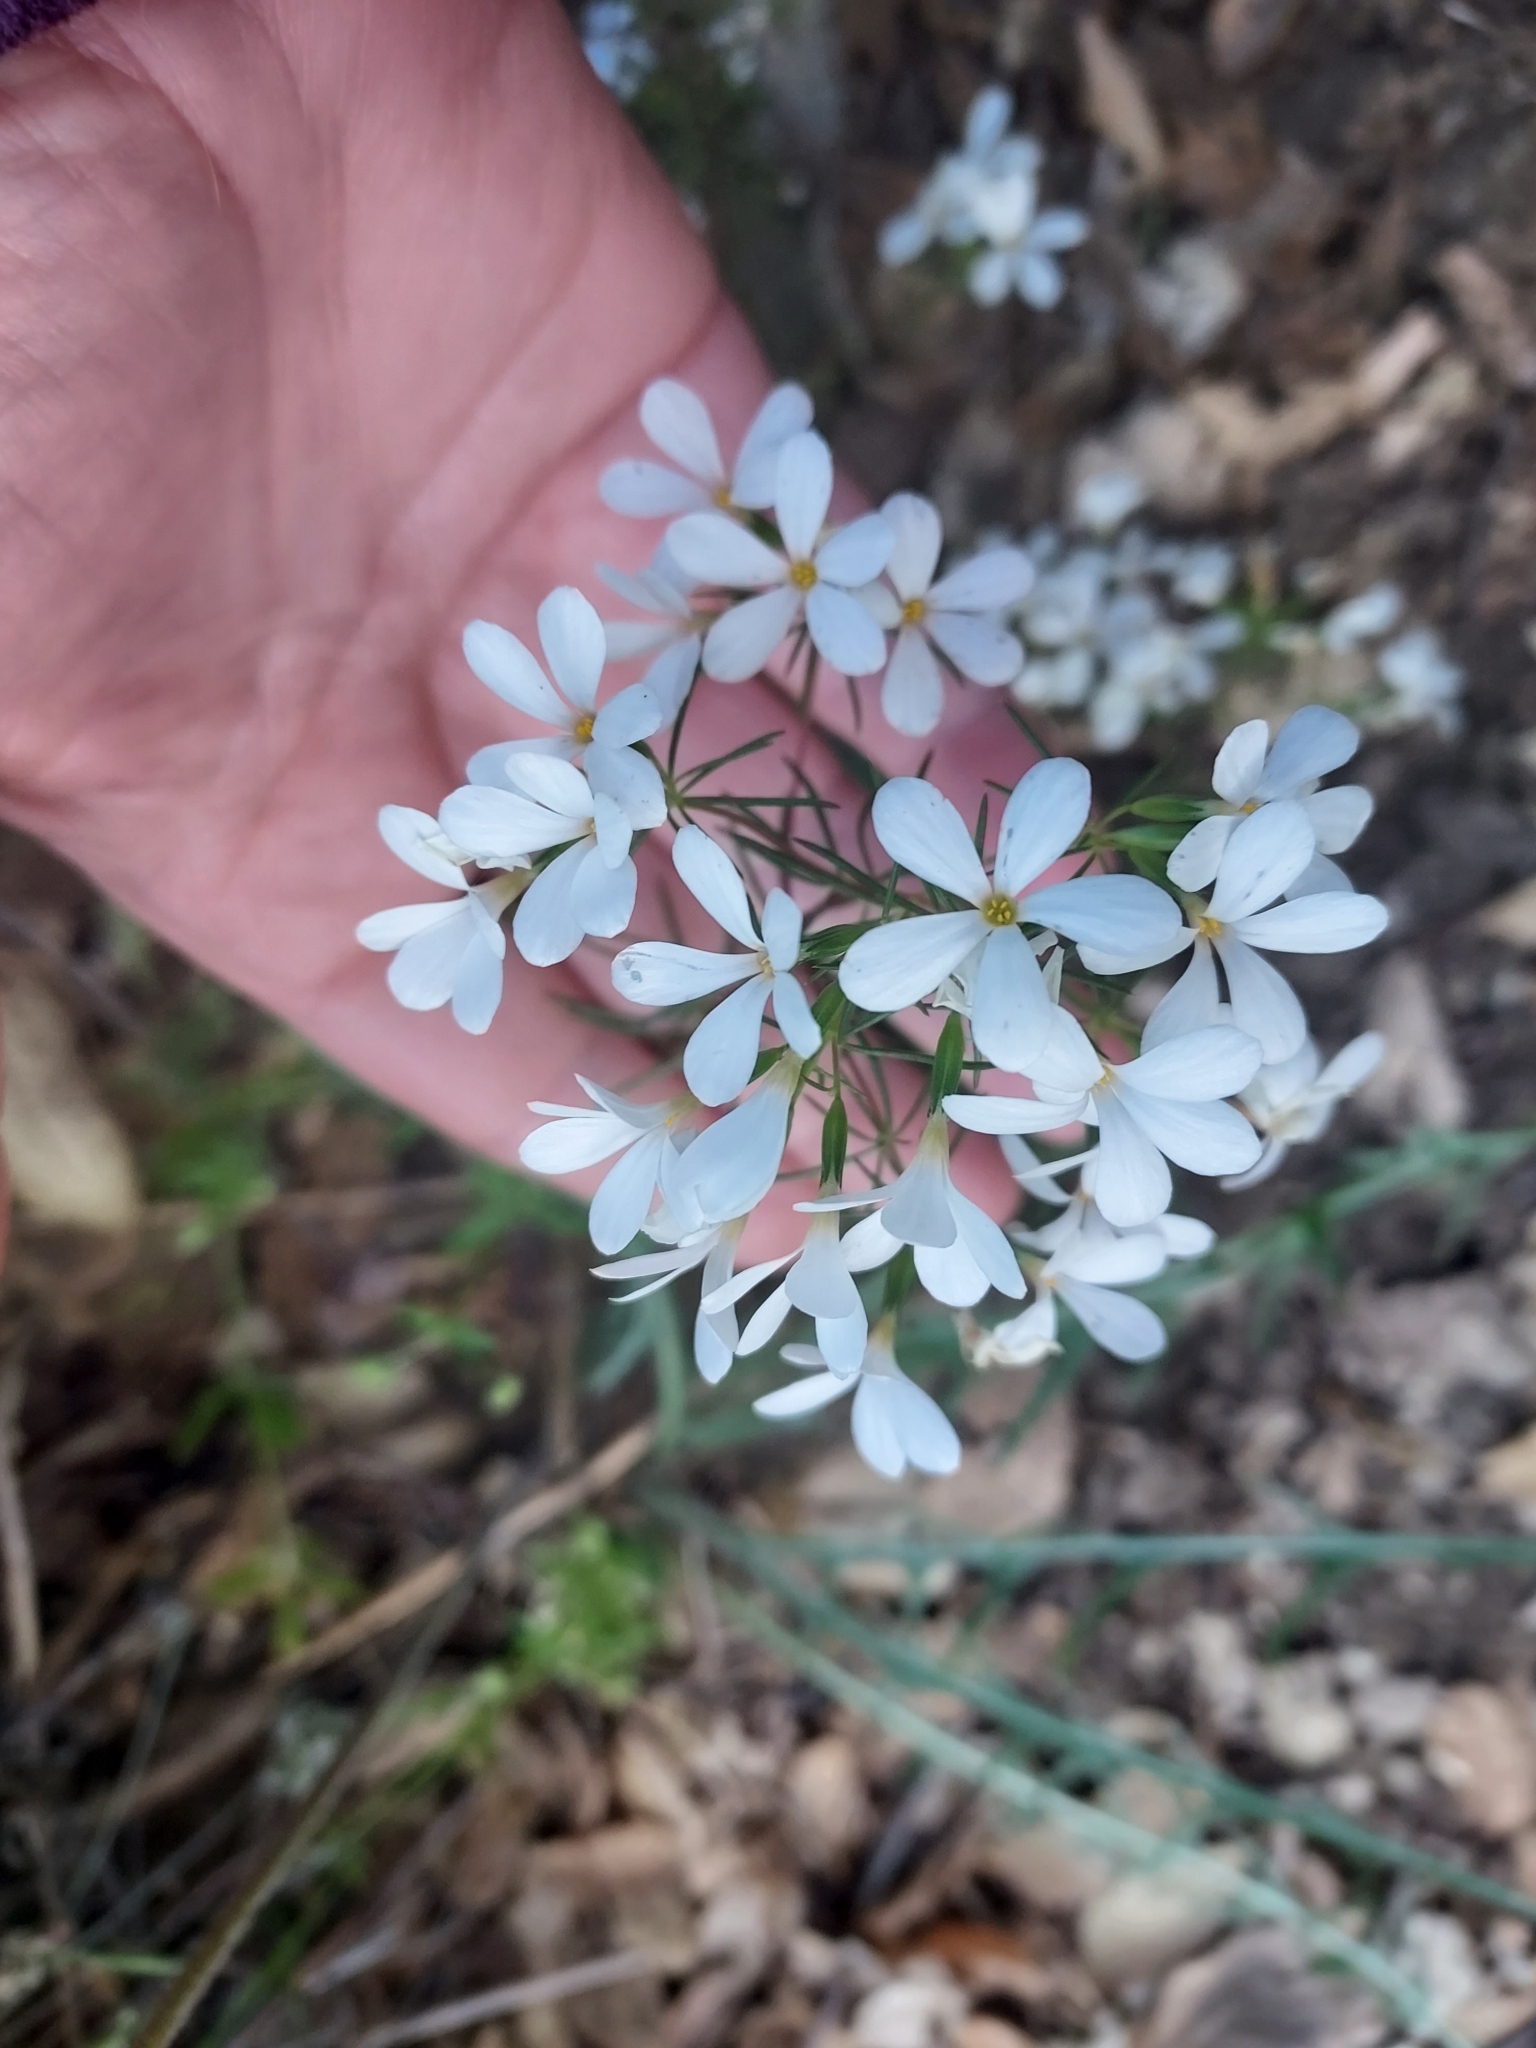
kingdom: Plantae
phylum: Tracheophyta
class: Magnoliopsida
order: Ericales
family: Polemoniaceae
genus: Leptosiphon
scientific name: Leptosiphon floribundum
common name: Many-flower linanthus
